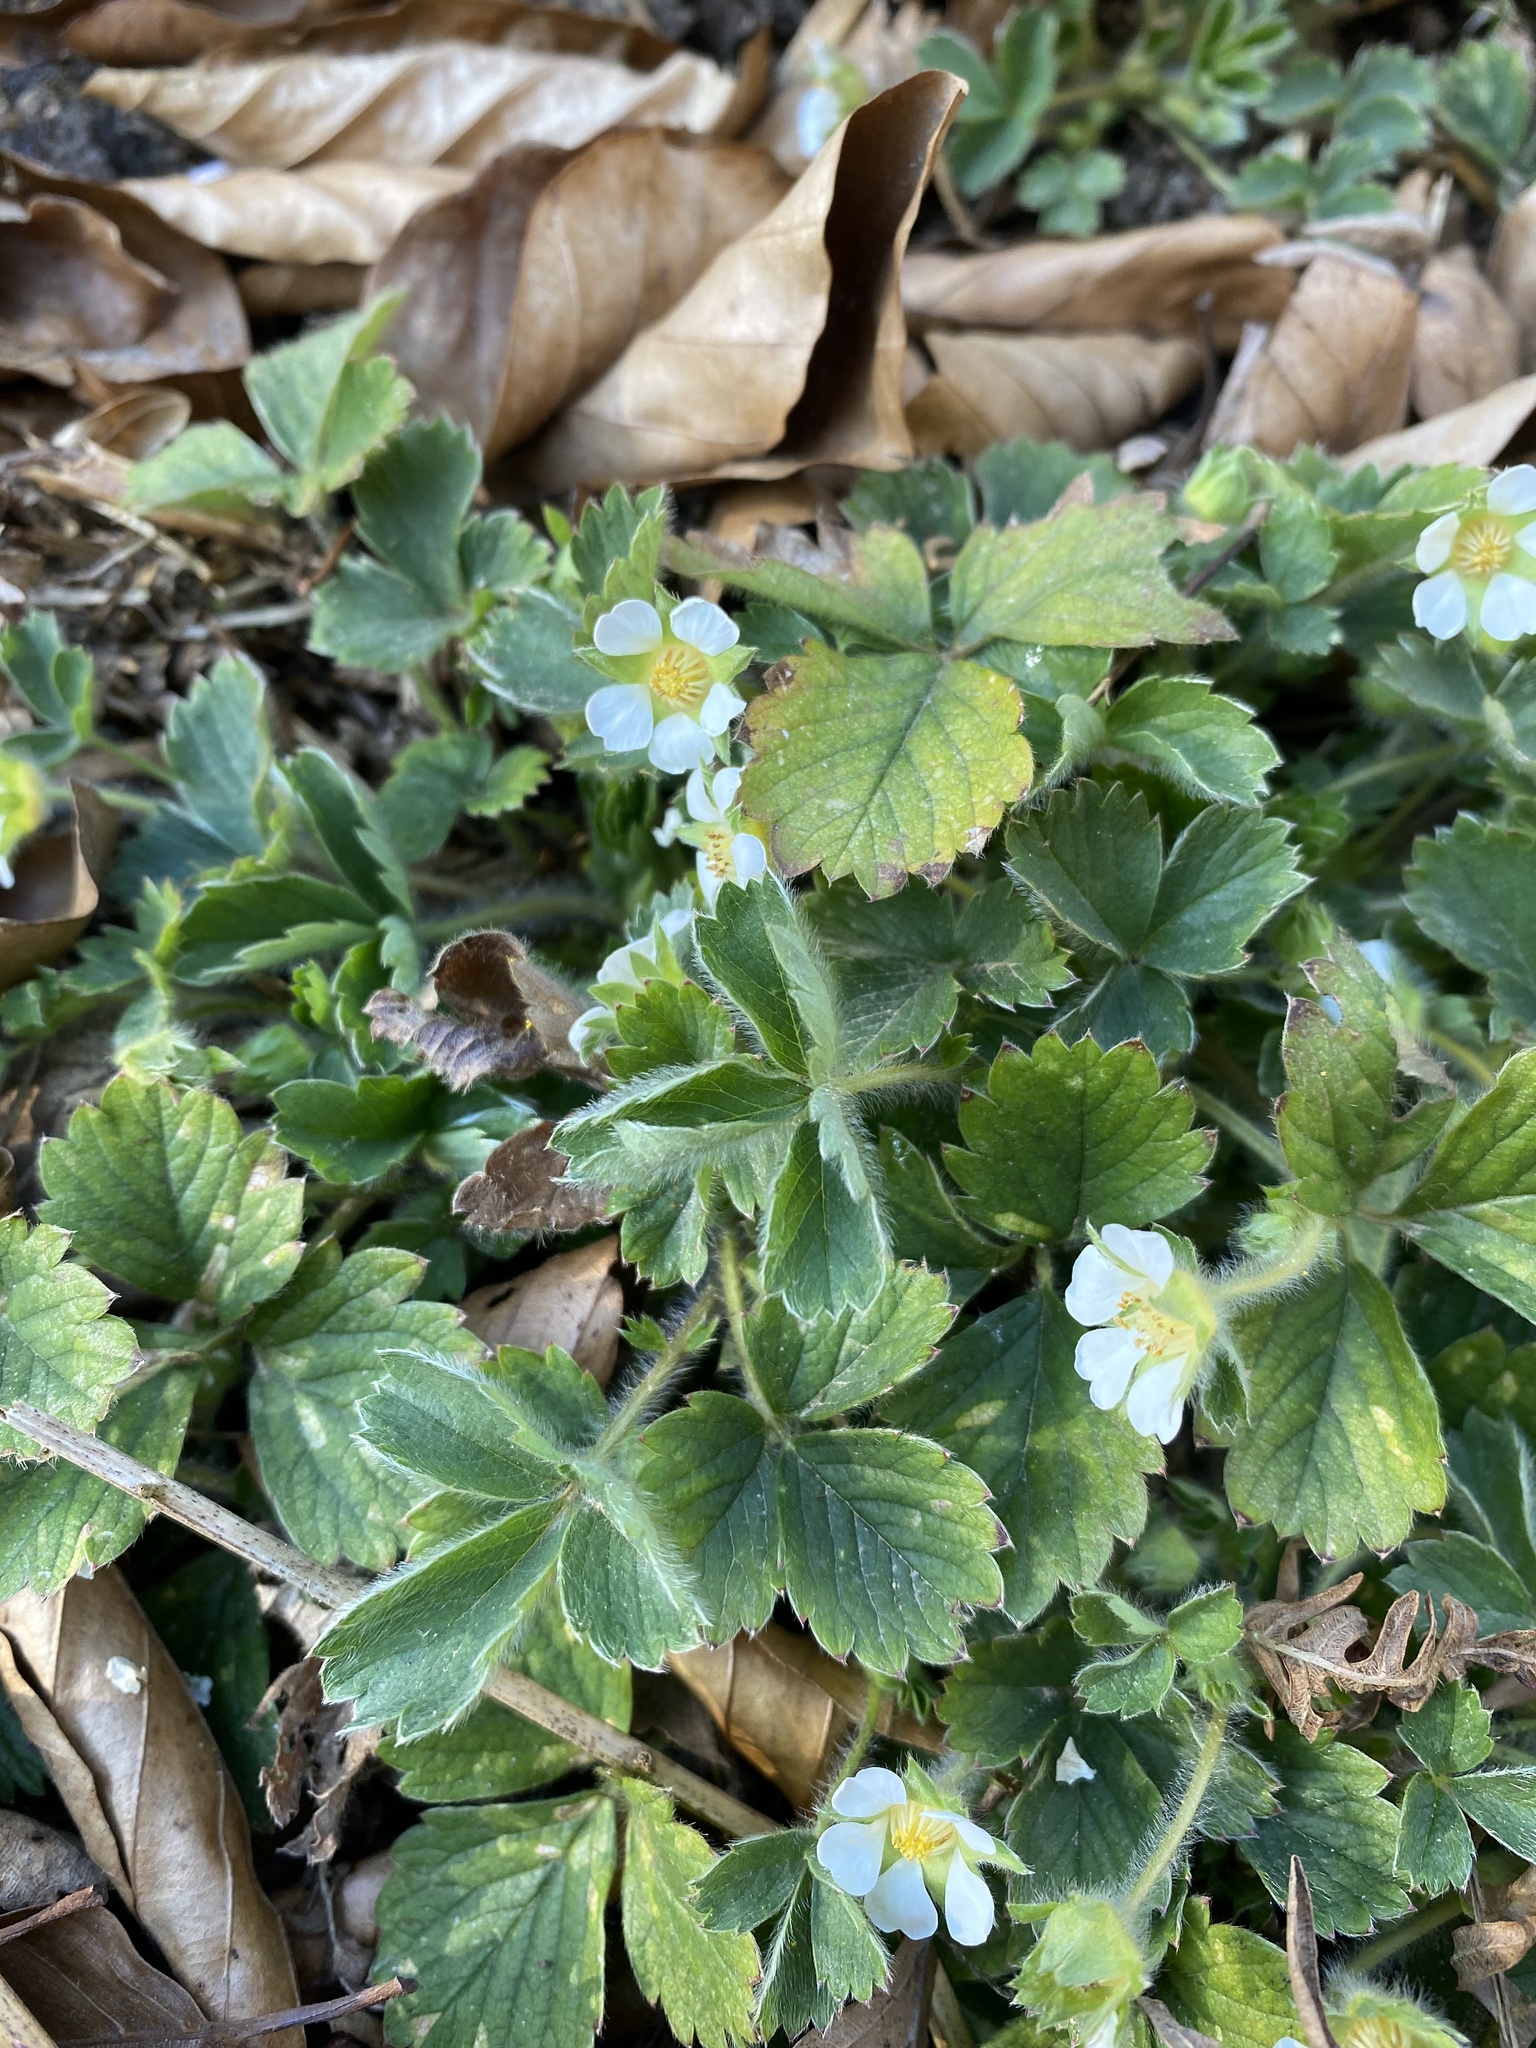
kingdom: Plantae
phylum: Tracheophyta
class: Magnoliopsida
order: Rosales
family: Rosaceae
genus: Potentilla
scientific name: Potentilla sterilis
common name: Barren strawberry
